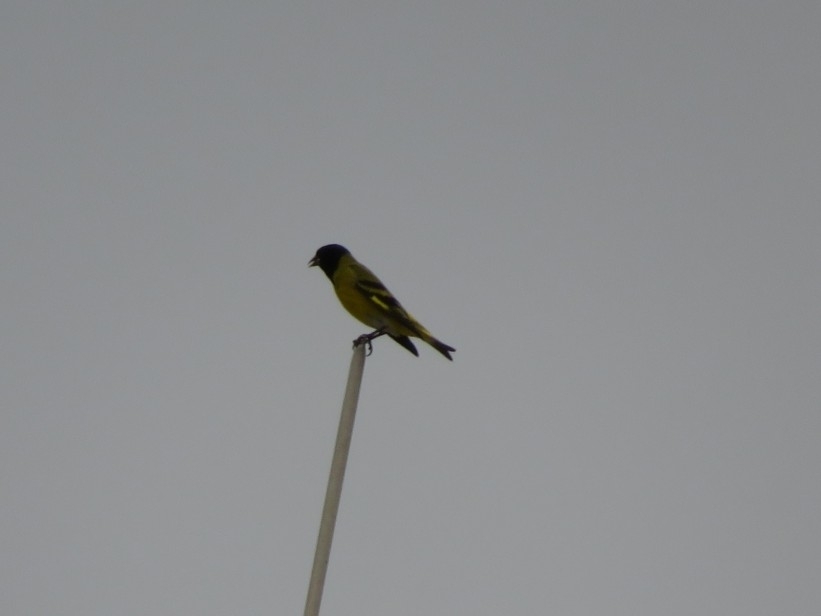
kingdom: Animalia
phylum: Chordata
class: Aves
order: Passeriformes
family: Fringillidae
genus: Spinus
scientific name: Spinus magellanicus
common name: Hooded siskin
